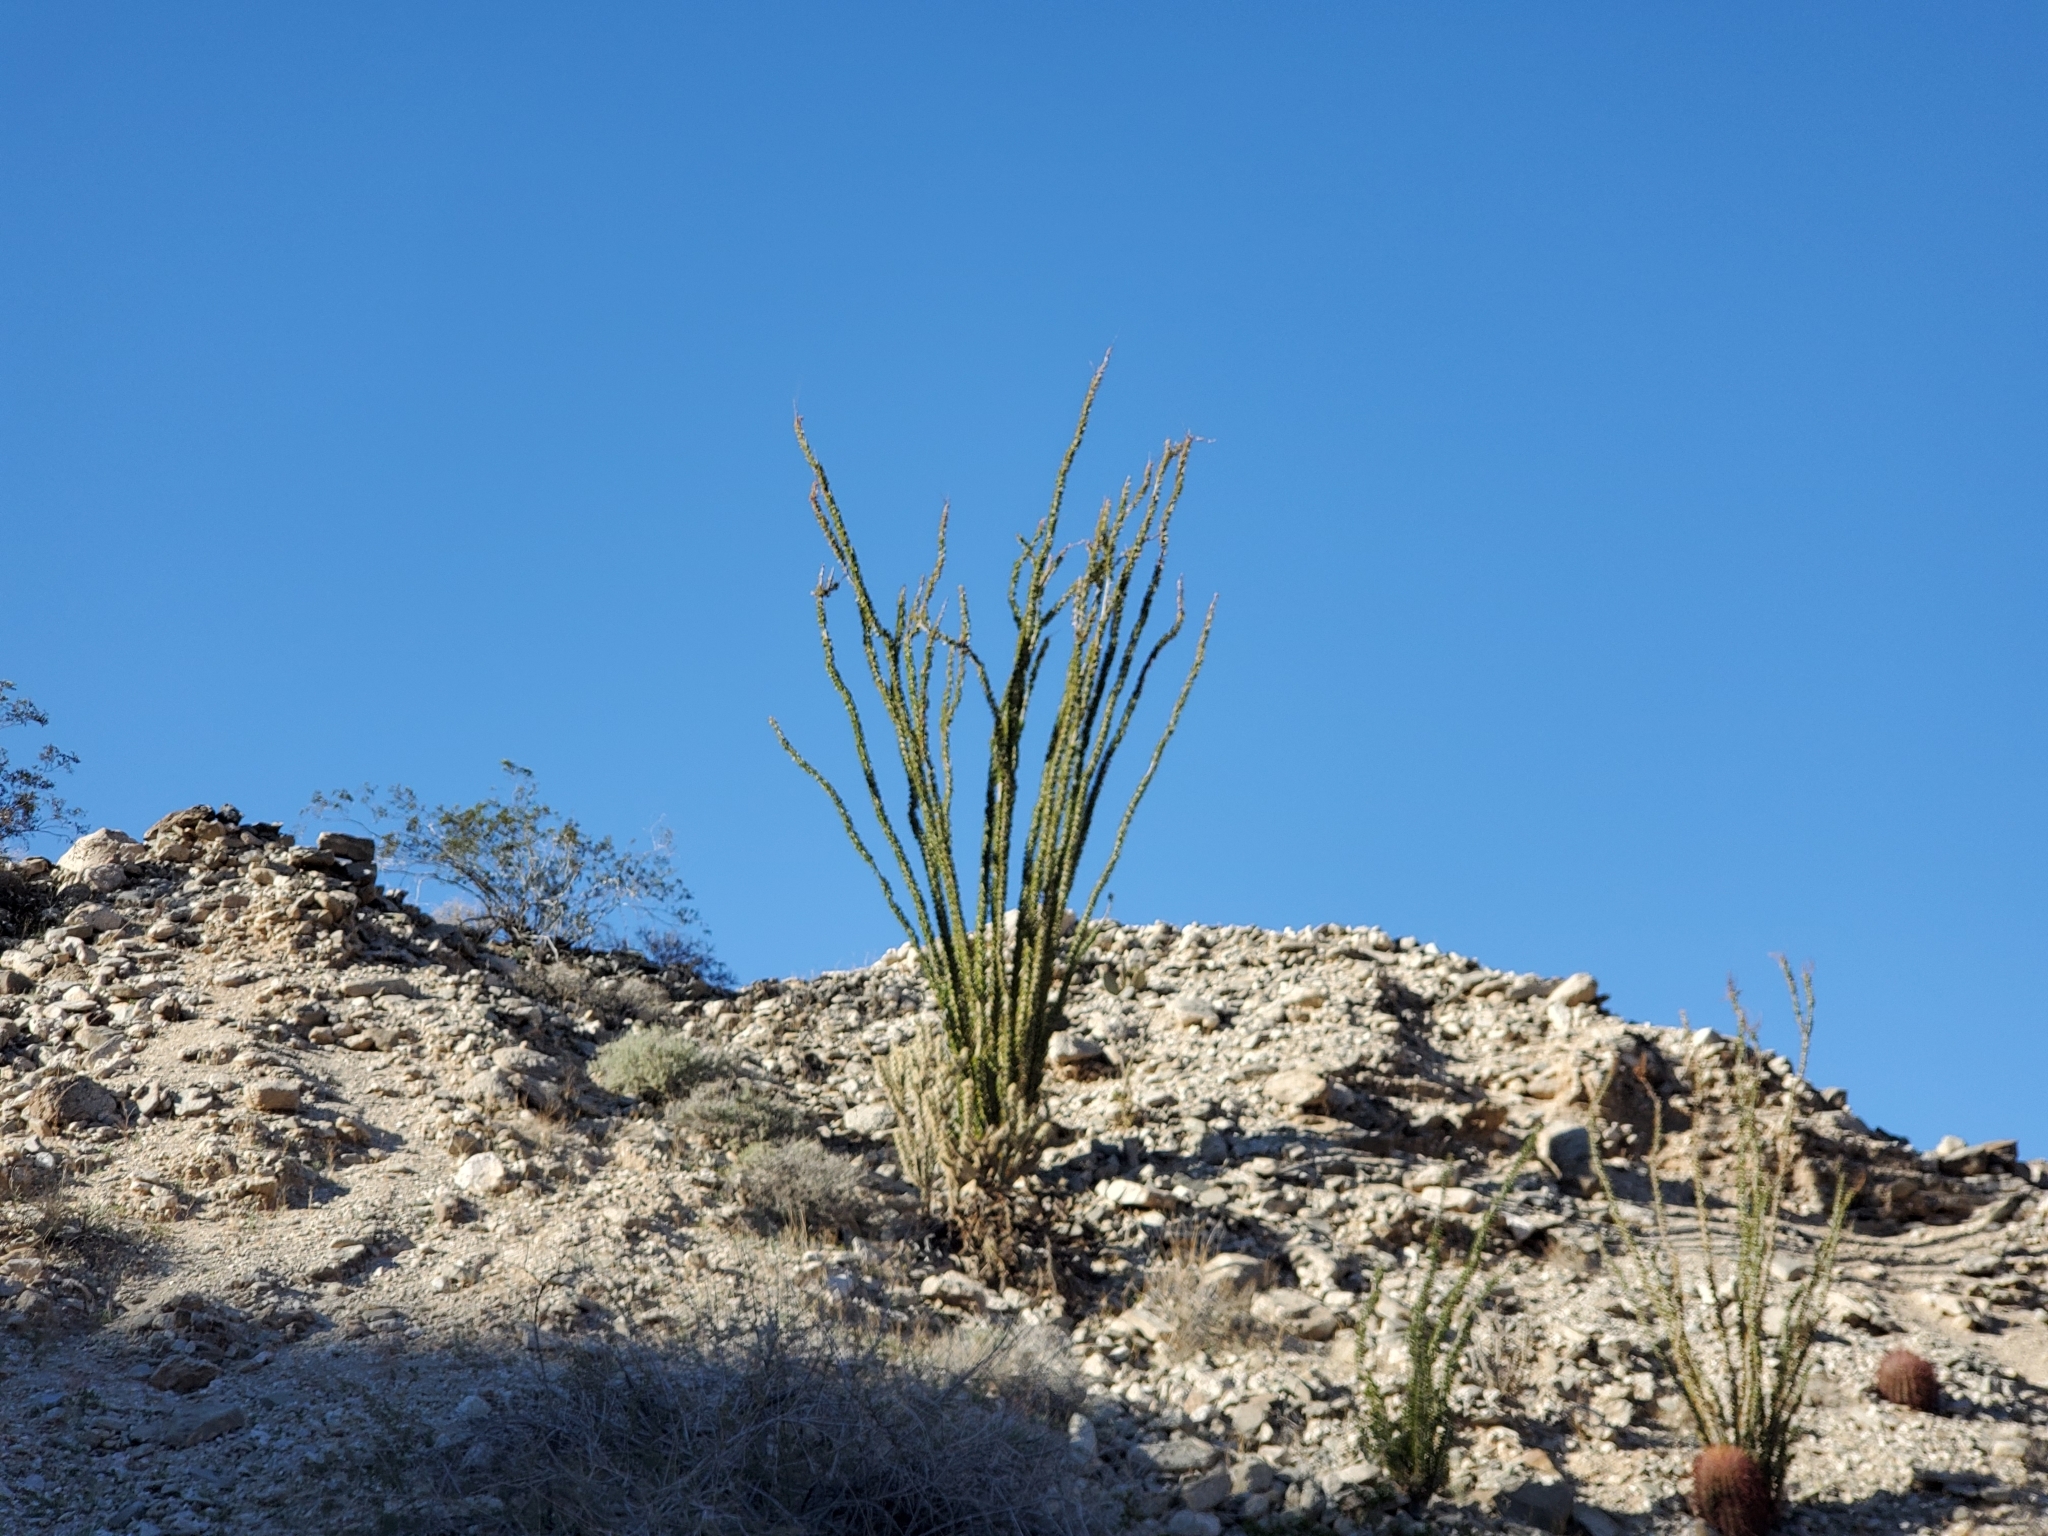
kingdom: Plantae
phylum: Tracheophyta
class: Magnoliopsida
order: Ericales
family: Fouquieriaceae
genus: Fouquieria
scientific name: Fouquieria splendens
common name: Vine-cactus
